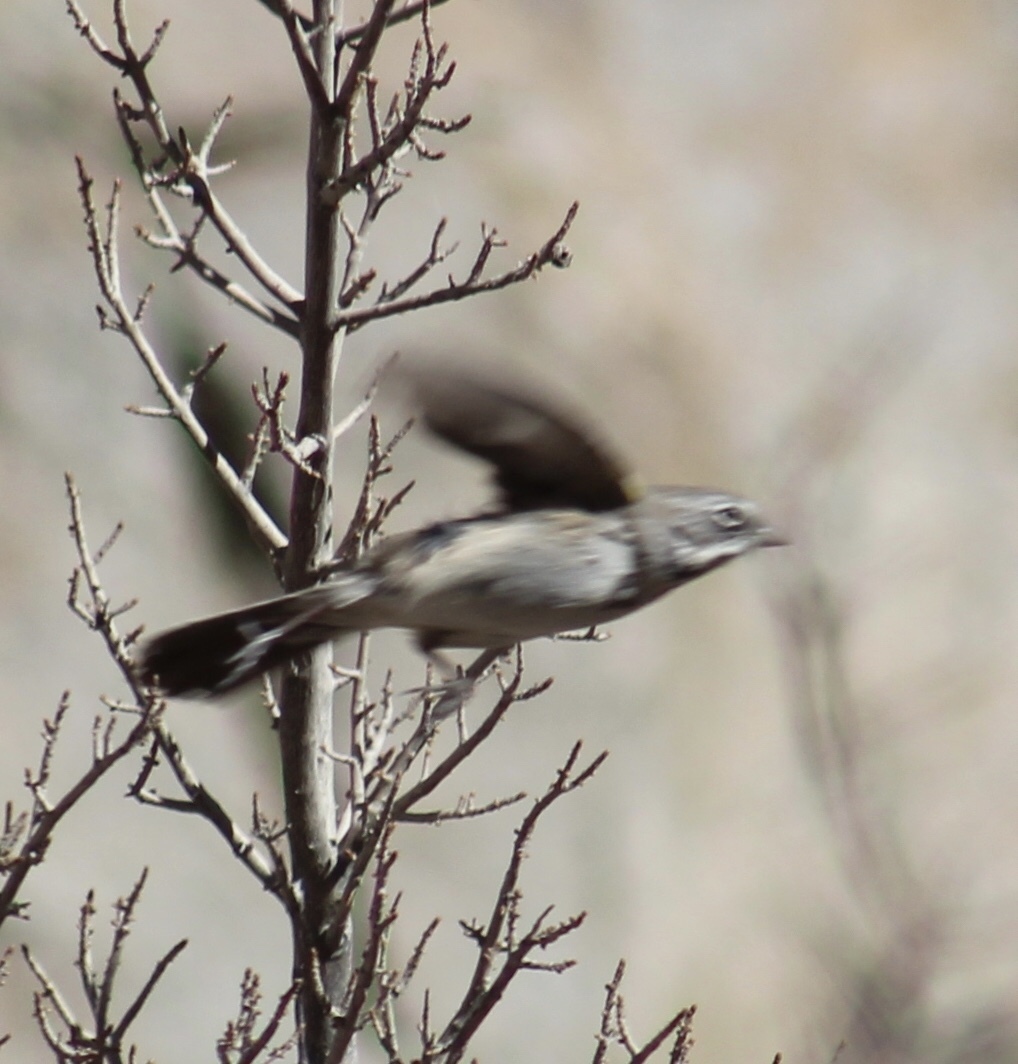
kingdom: Animalia
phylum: Chordata
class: Aves
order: Passeriformes
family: Passerellidae
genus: Artemisiospiza
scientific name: Artemisiospiza belli
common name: Bell's sparrow
